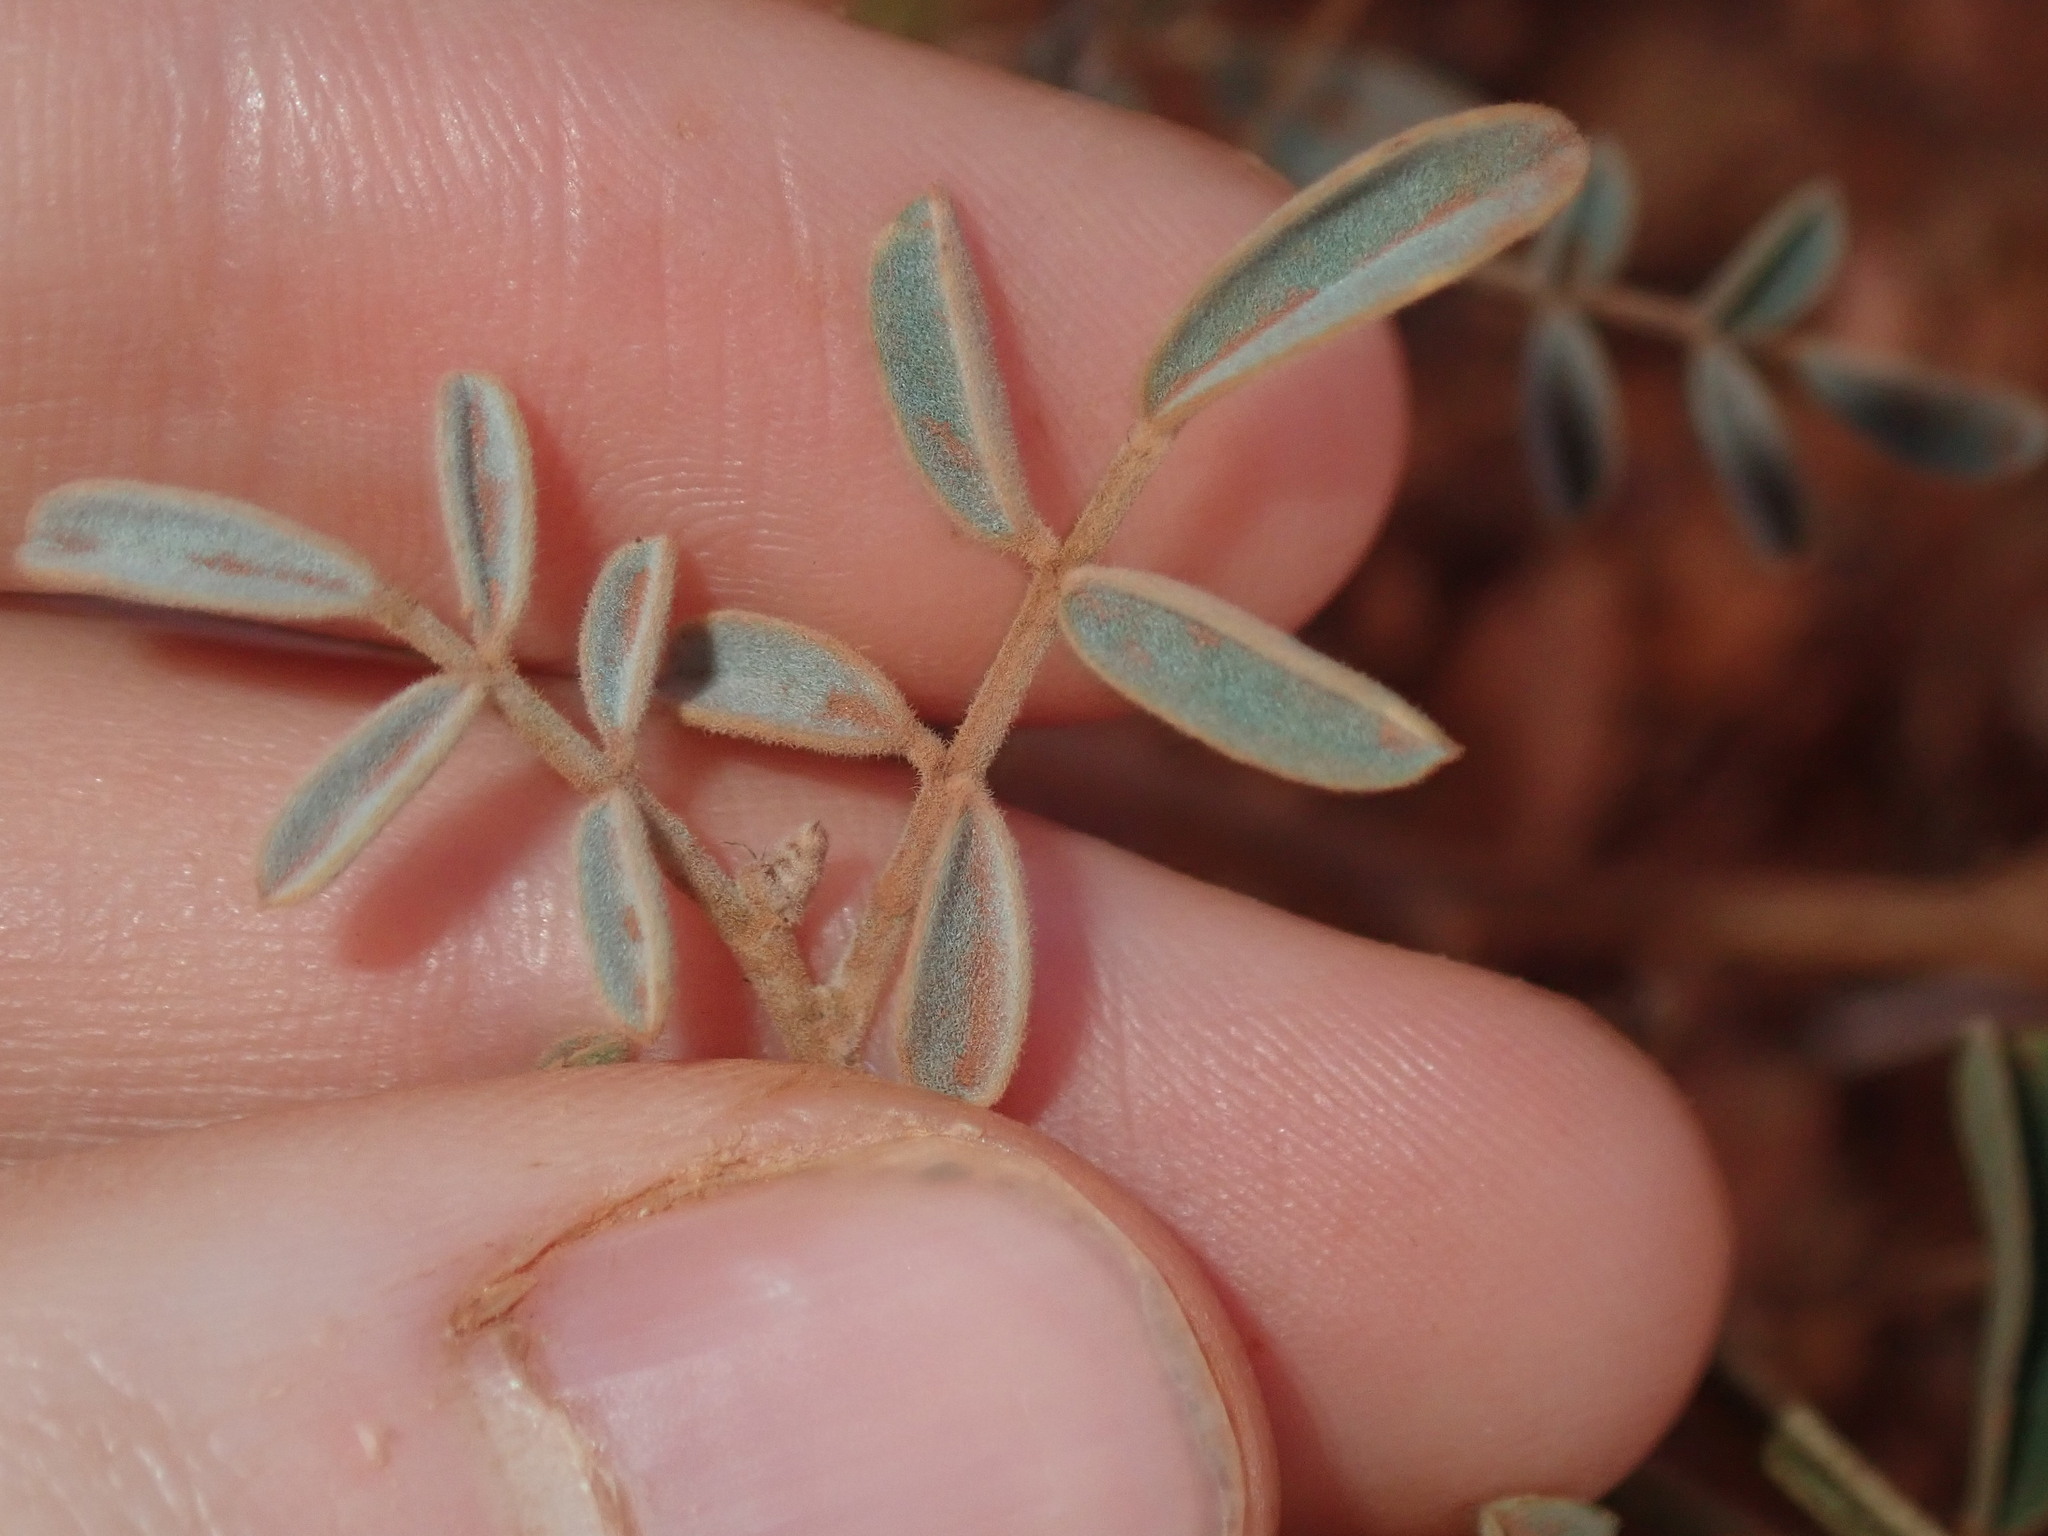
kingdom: Plantae
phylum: Tracheophyta
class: Magnoliopsida
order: Fabales
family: Fabaceae
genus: Indigofera
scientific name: Indigofera georgei
